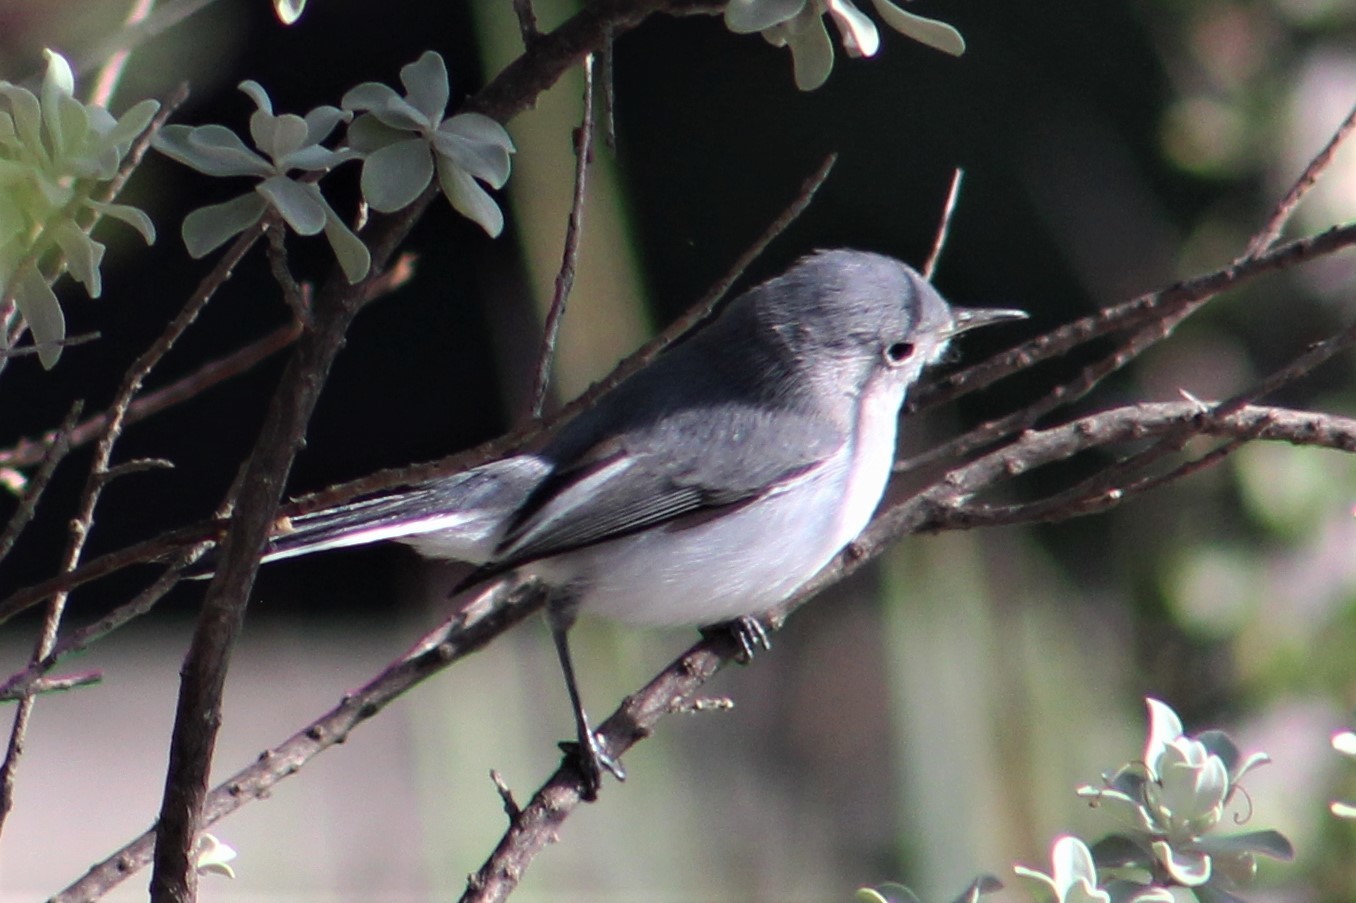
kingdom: Animalia
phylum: Chordata
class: Aves
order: Passeriformes
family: Polioptilidae
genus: Polioptila
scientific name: Polioptila caerulea
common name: Blue-gray gnatcatcher
